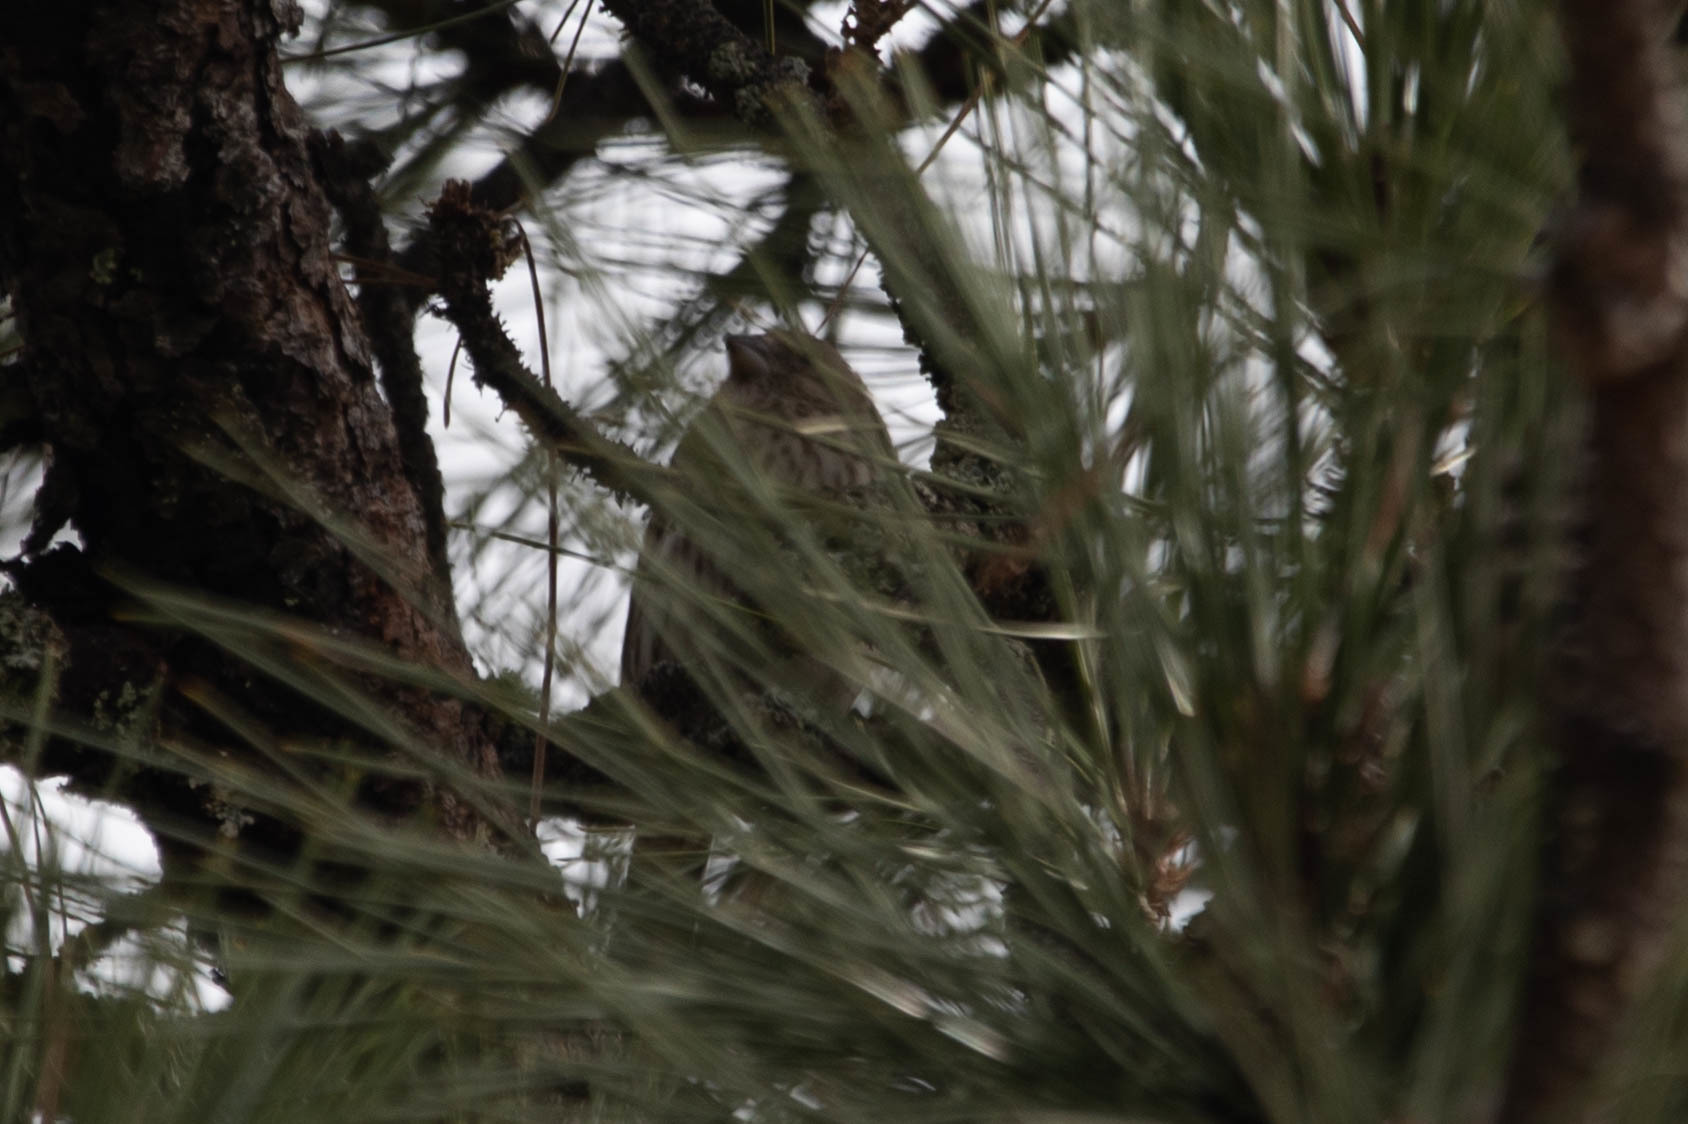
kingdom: Animalia
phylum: Chordata
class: Aves
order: Passeriformes
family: Fringillidae
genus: Haemorhous
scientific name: Haemorhous mexicanus
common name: House finch
